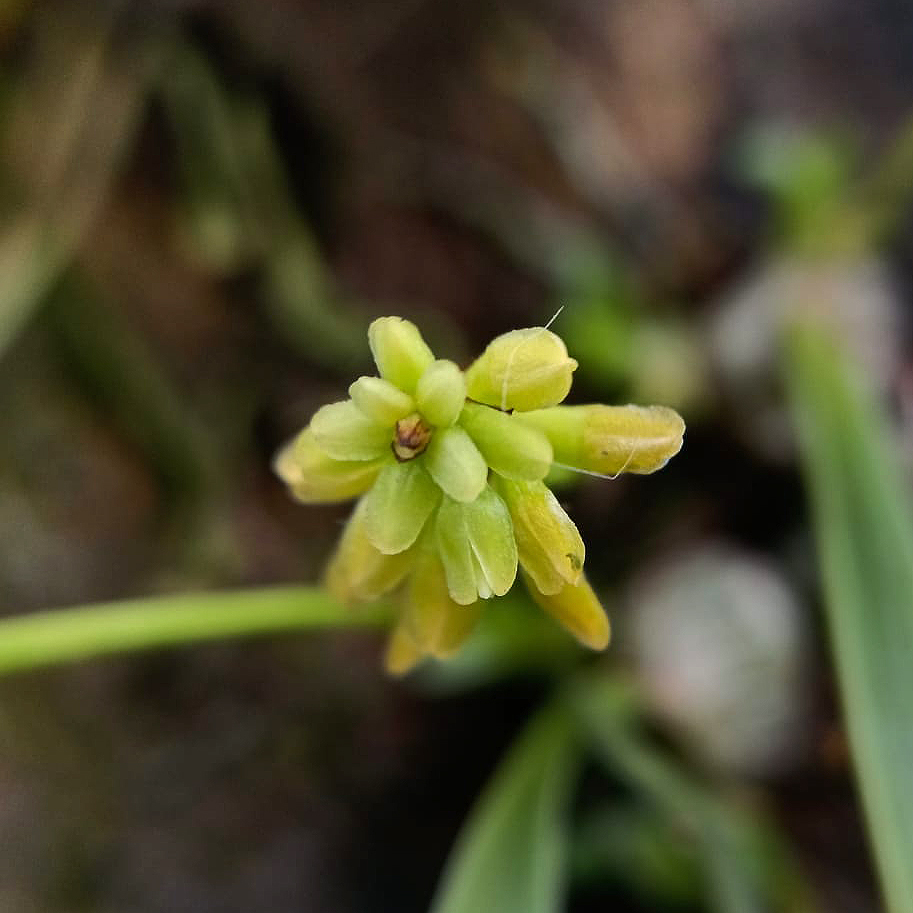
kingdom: Plantae
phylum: Tracheophyta
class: Liliopsida
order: Asparagales
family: Orchidaceae
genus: Thelasis
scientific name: Thelasis pygmaea
